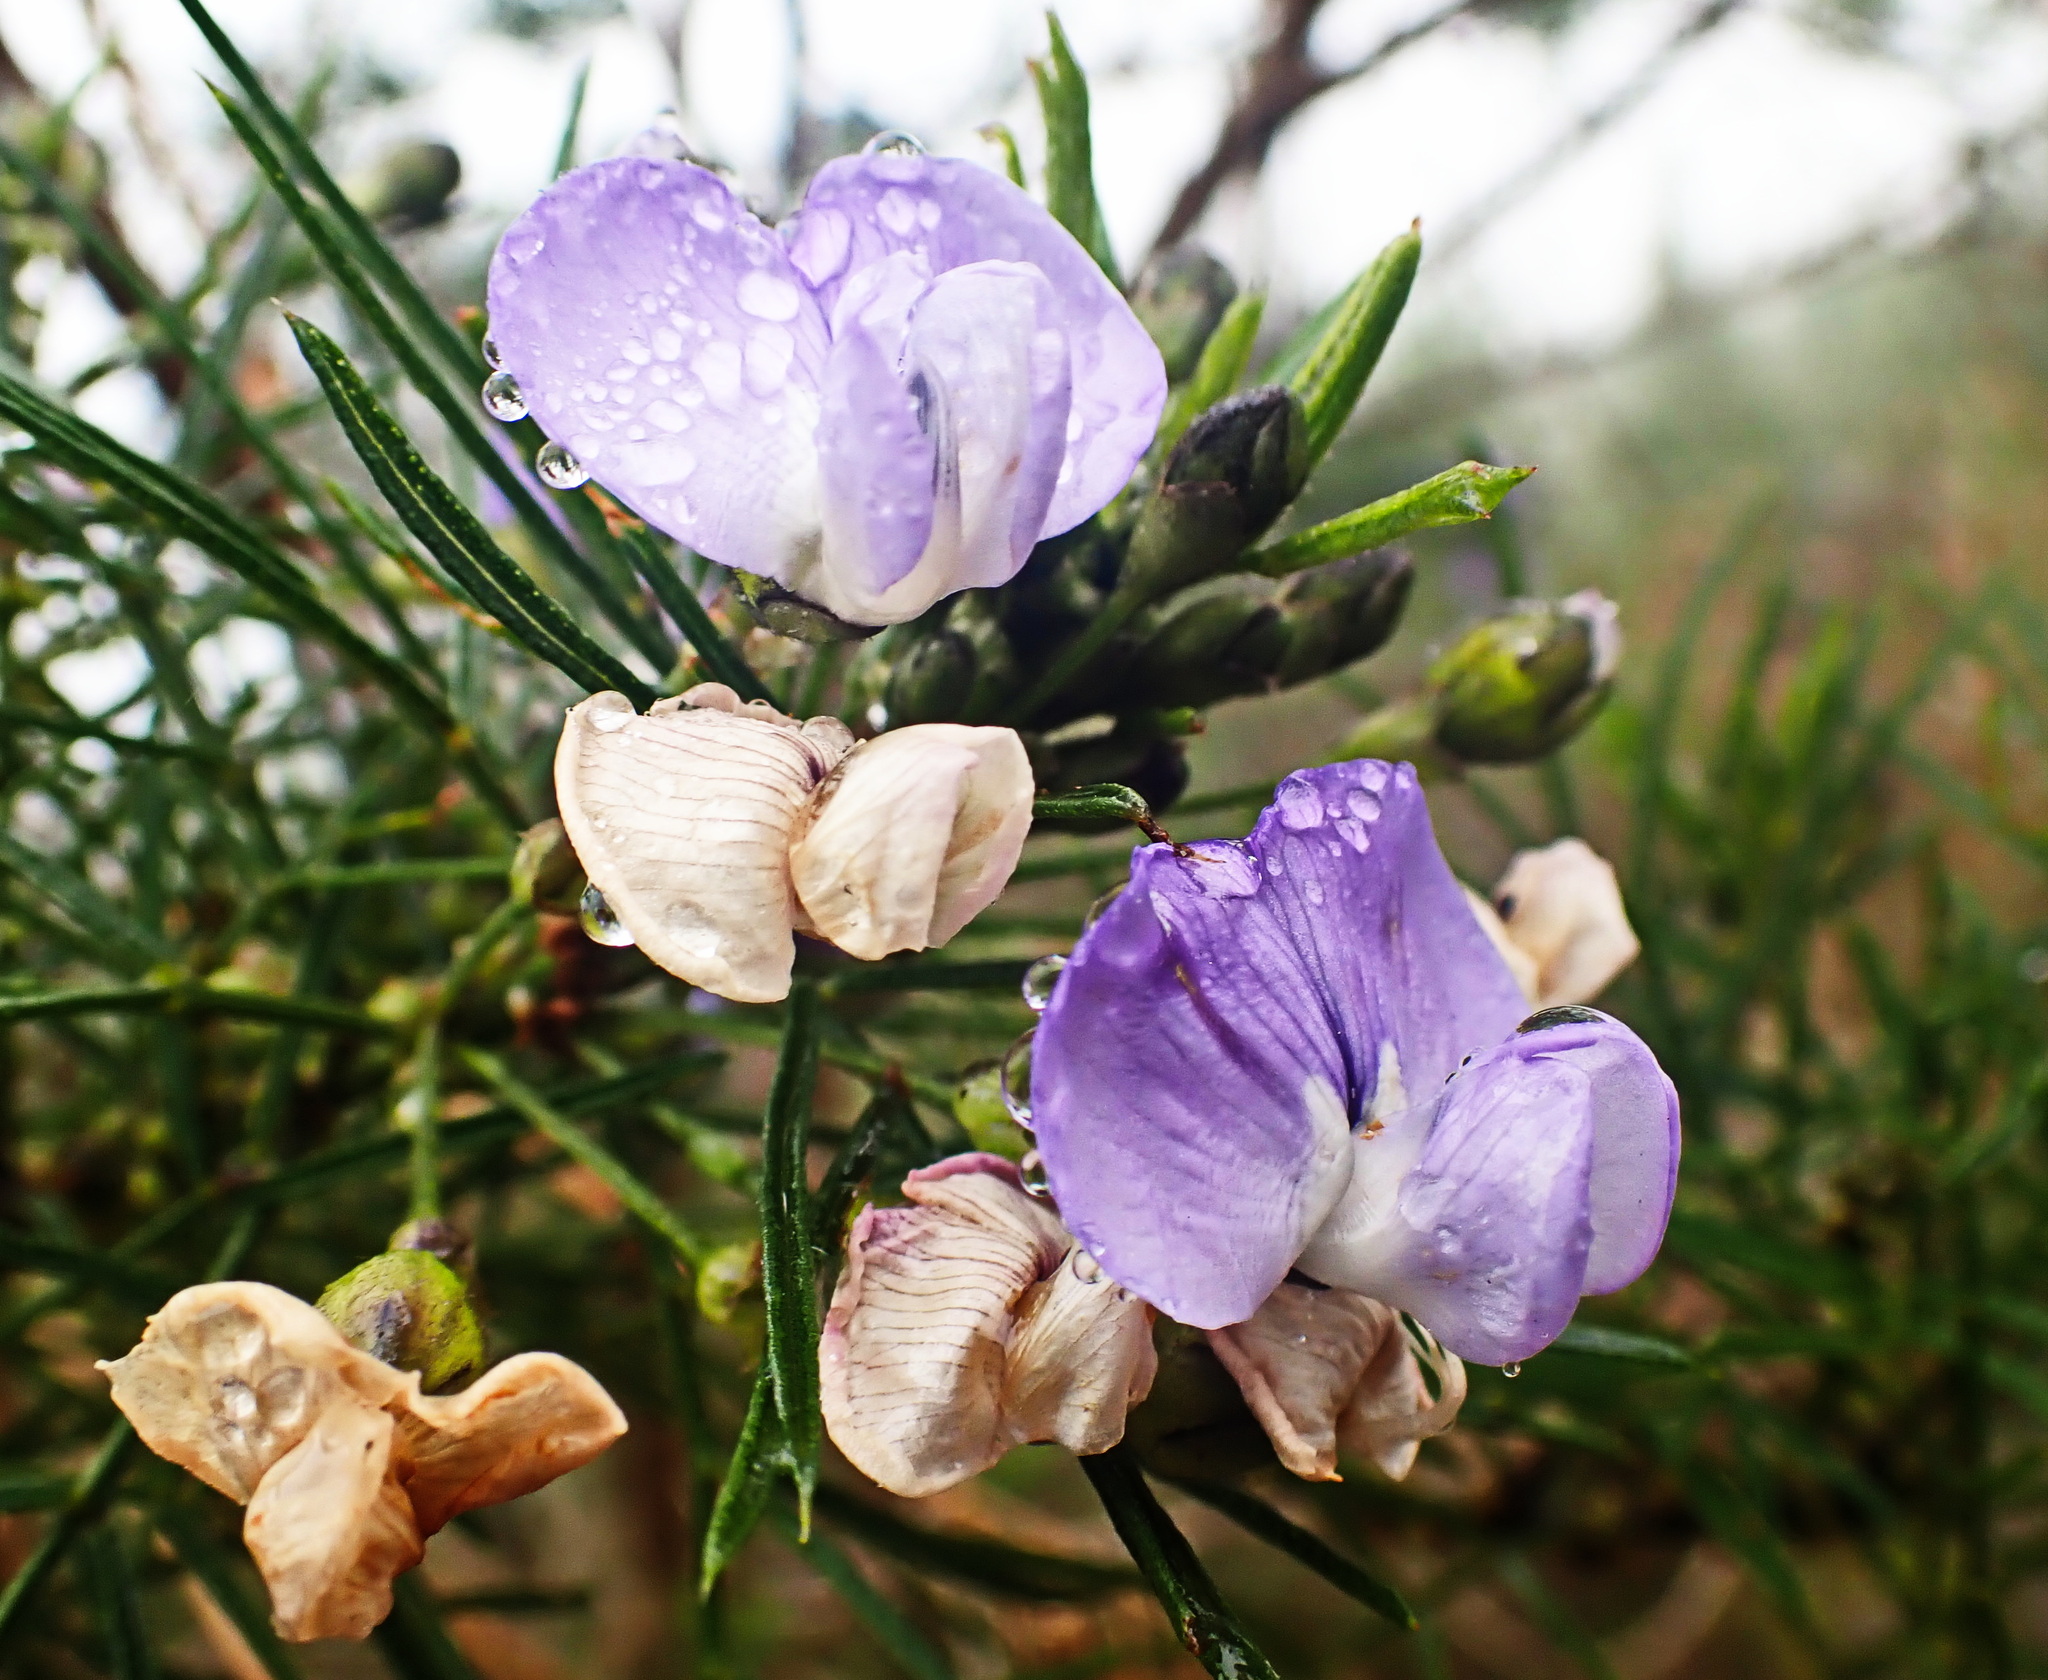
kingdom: Plantae
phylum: Tracheophyta
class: Magnoliopsida
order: Fabales
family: Fabaceae
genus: Psoralea
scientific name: Psoralea arborea
